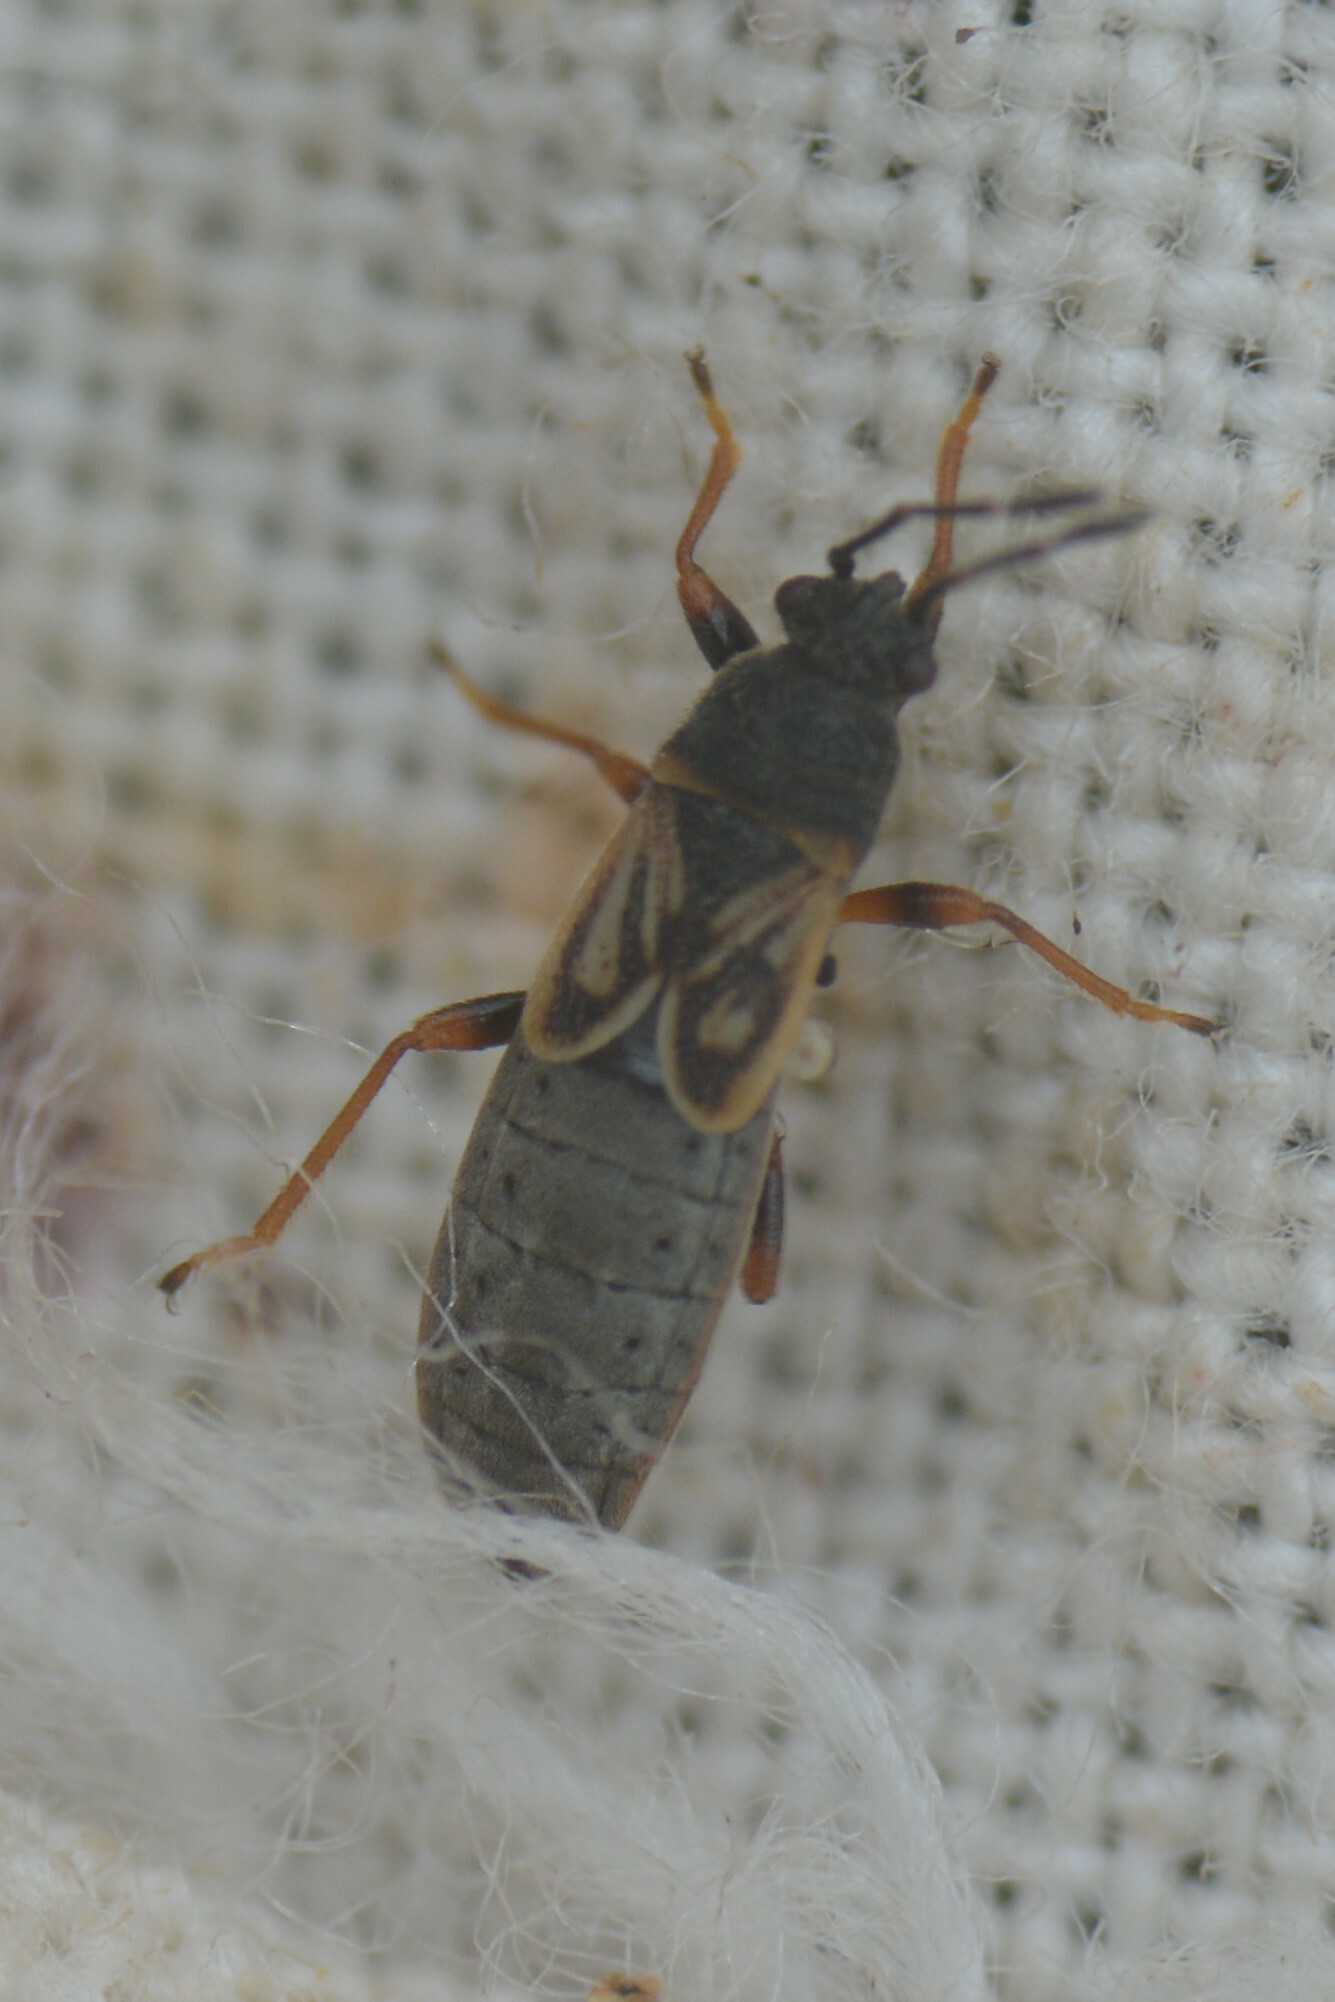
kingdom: Animalia
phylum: Arthropoda
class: Insecta
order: Hemiptera
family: Blissidae
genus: Ischnodemus
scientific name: Ischnodemus sabuleti
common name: European cinchbug
